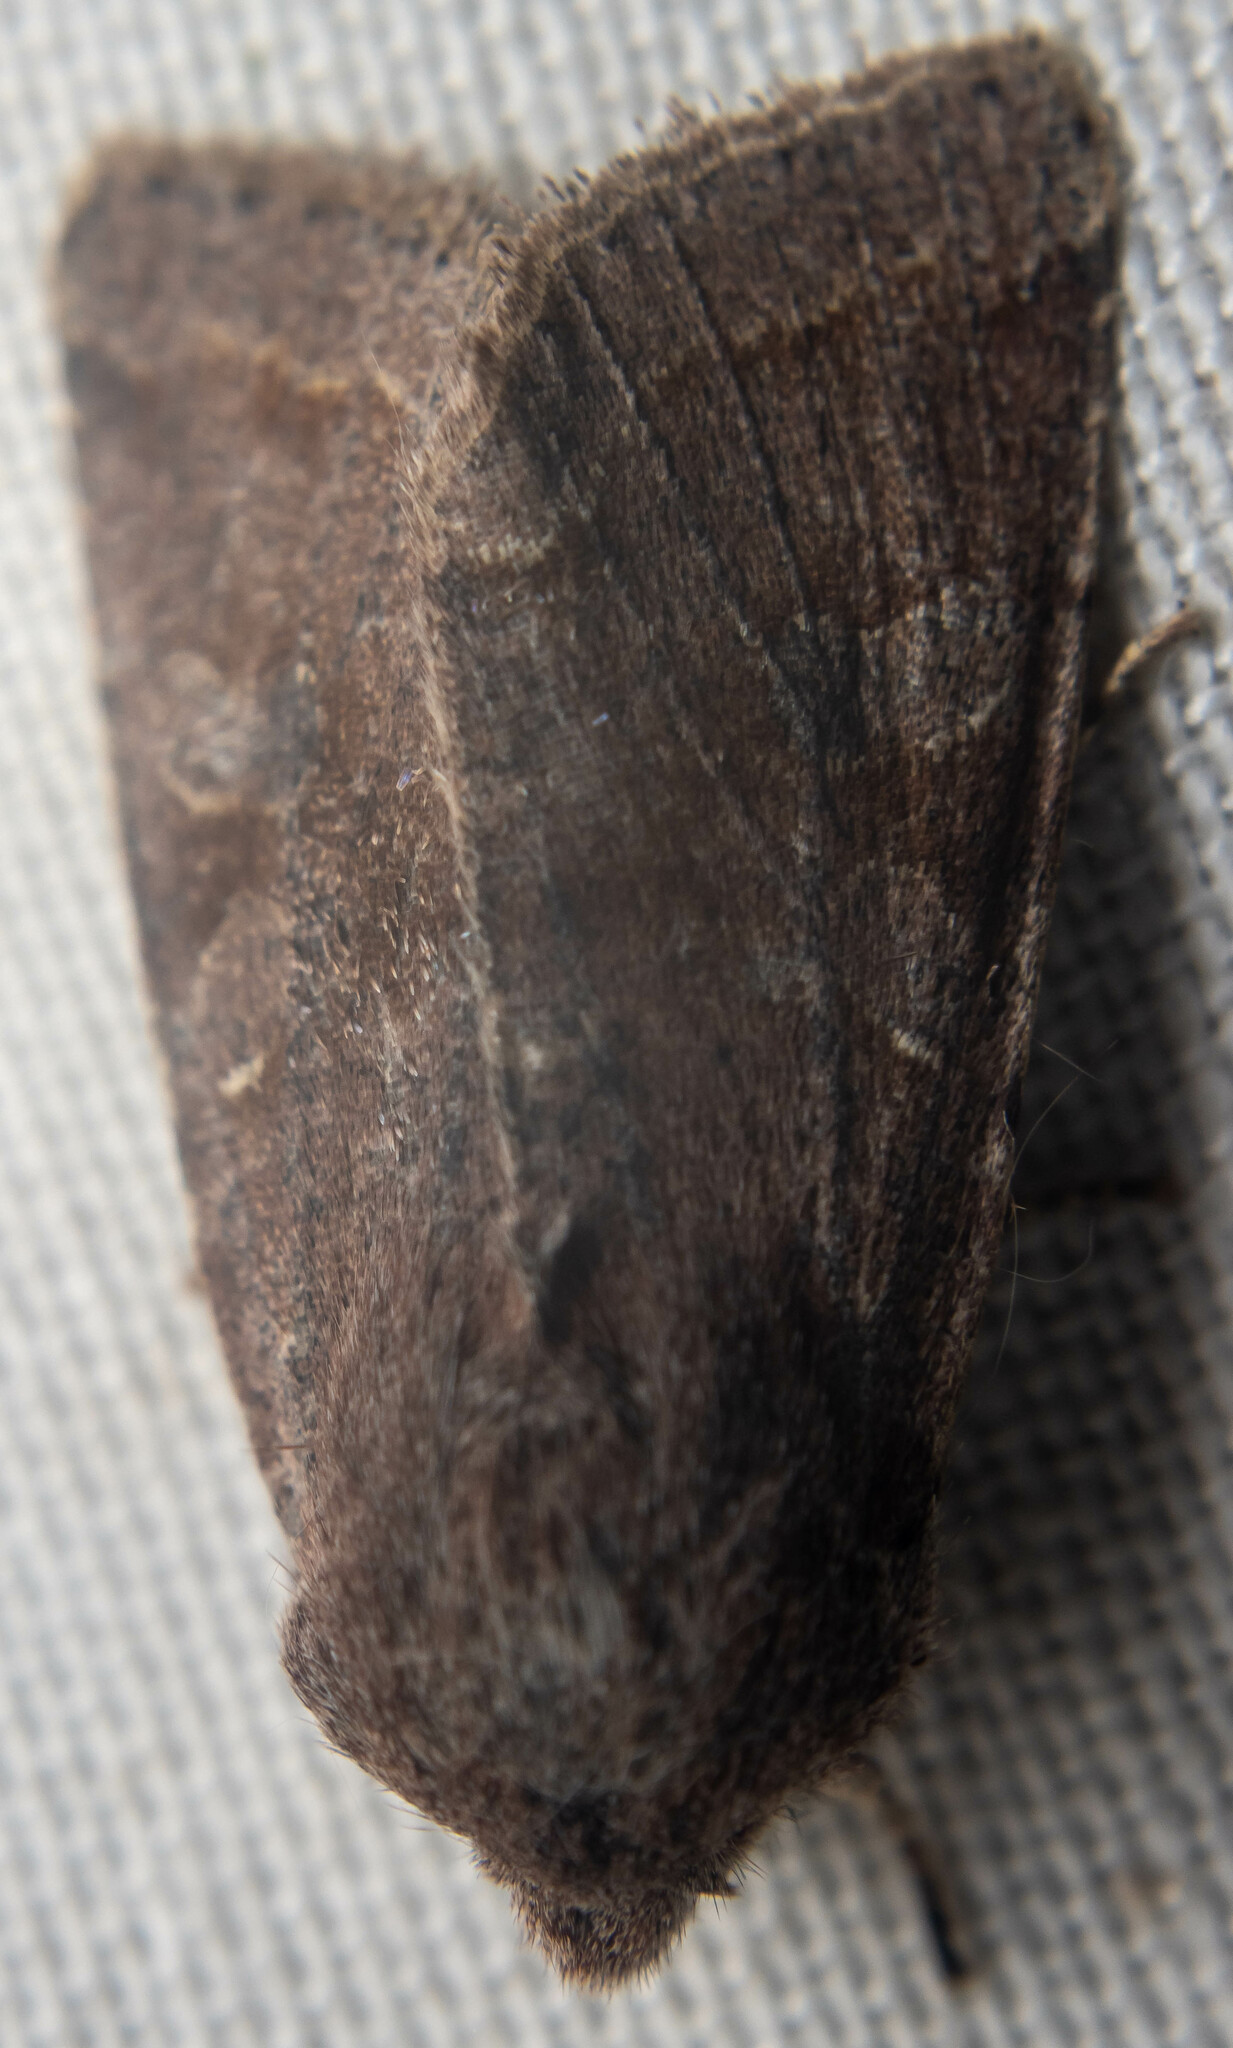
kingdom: Animalia
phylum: Arthropoda
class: Insecta
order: Lepidoptera
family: Noctuidae
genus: Orthosia
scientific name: Orthosia incerta
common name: Clouded drab
